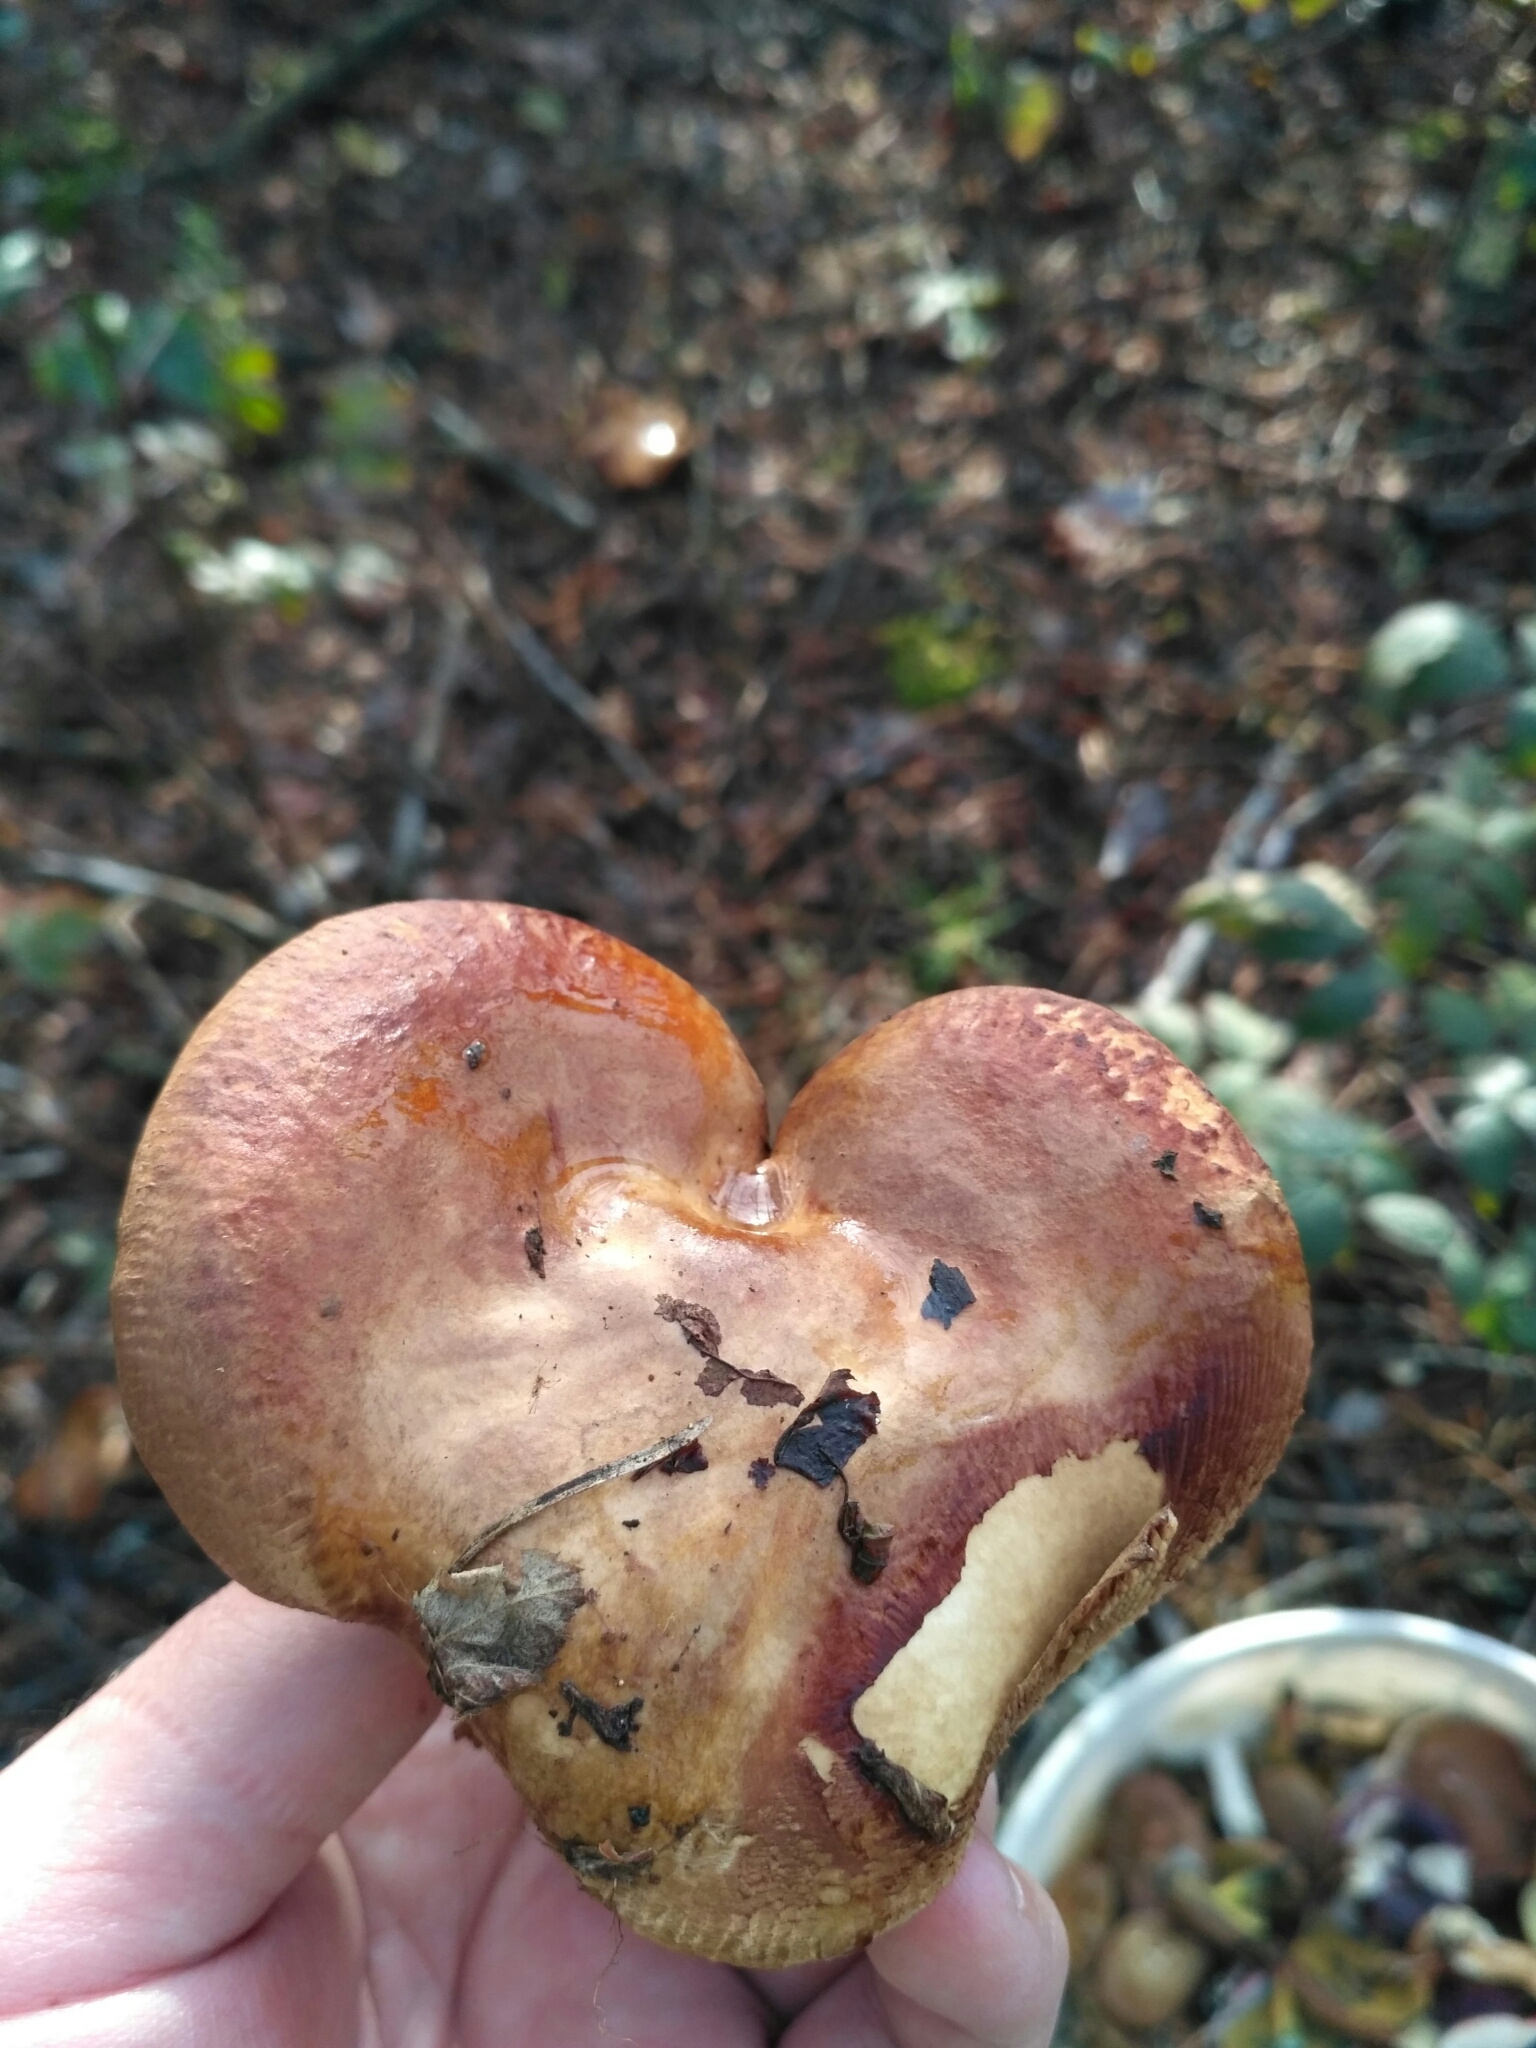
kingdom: Fungi
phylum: Basidiomycota
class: Agaricomycetes
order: Boletales
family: Paxillaceae
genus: Paxillus
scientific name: Paxillus involutus
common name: Brown roll rim
